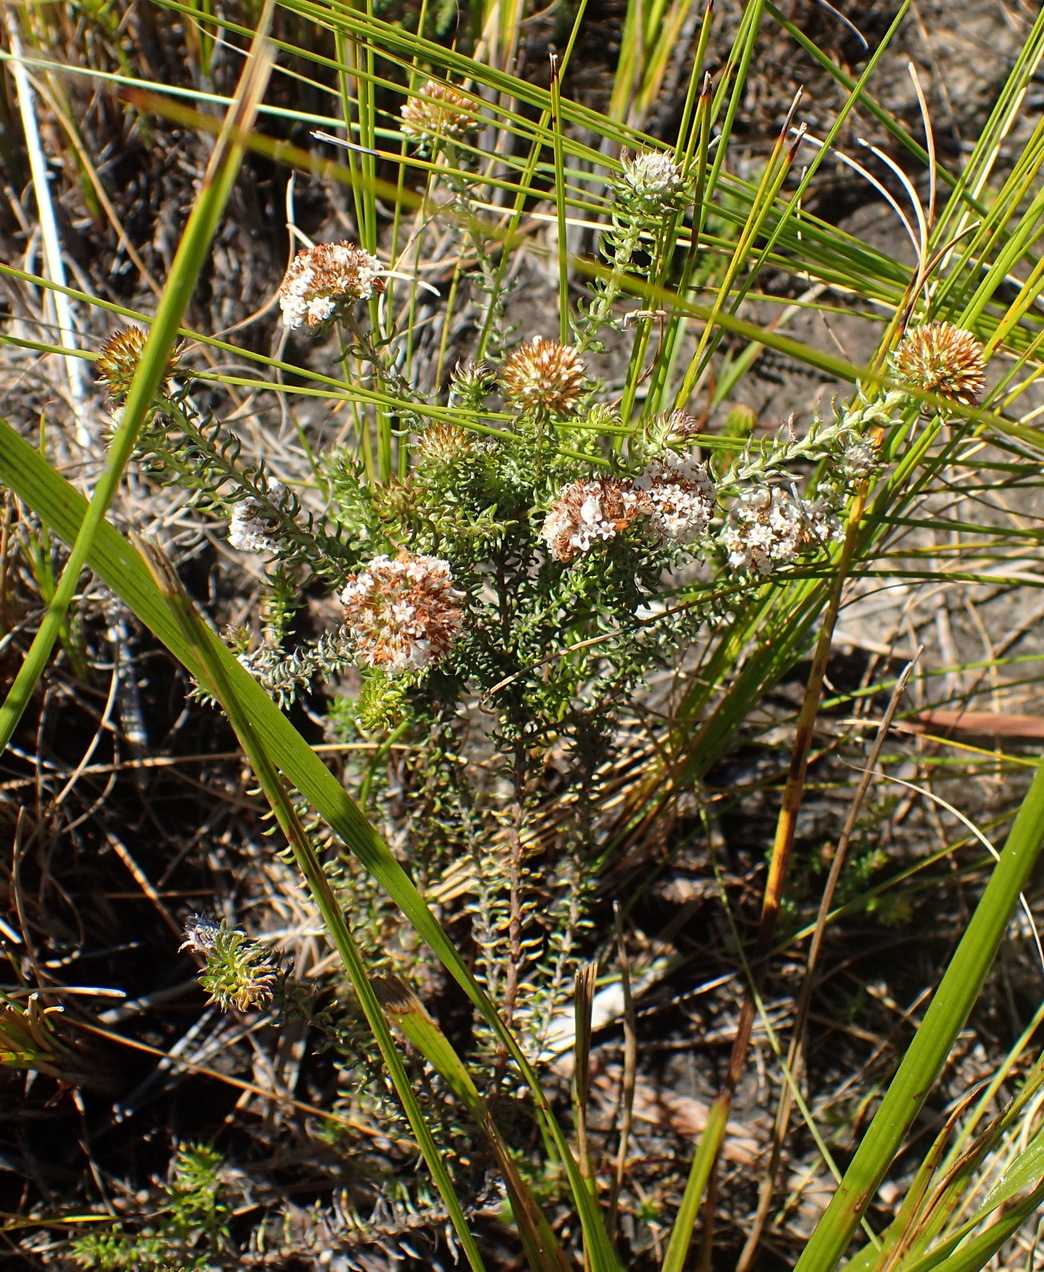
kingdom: Plantae
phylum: Tracheophyta
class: Magnoliopsida
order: Asterales
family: Asteraceae
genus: Disparago
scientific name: Disparago anomala
